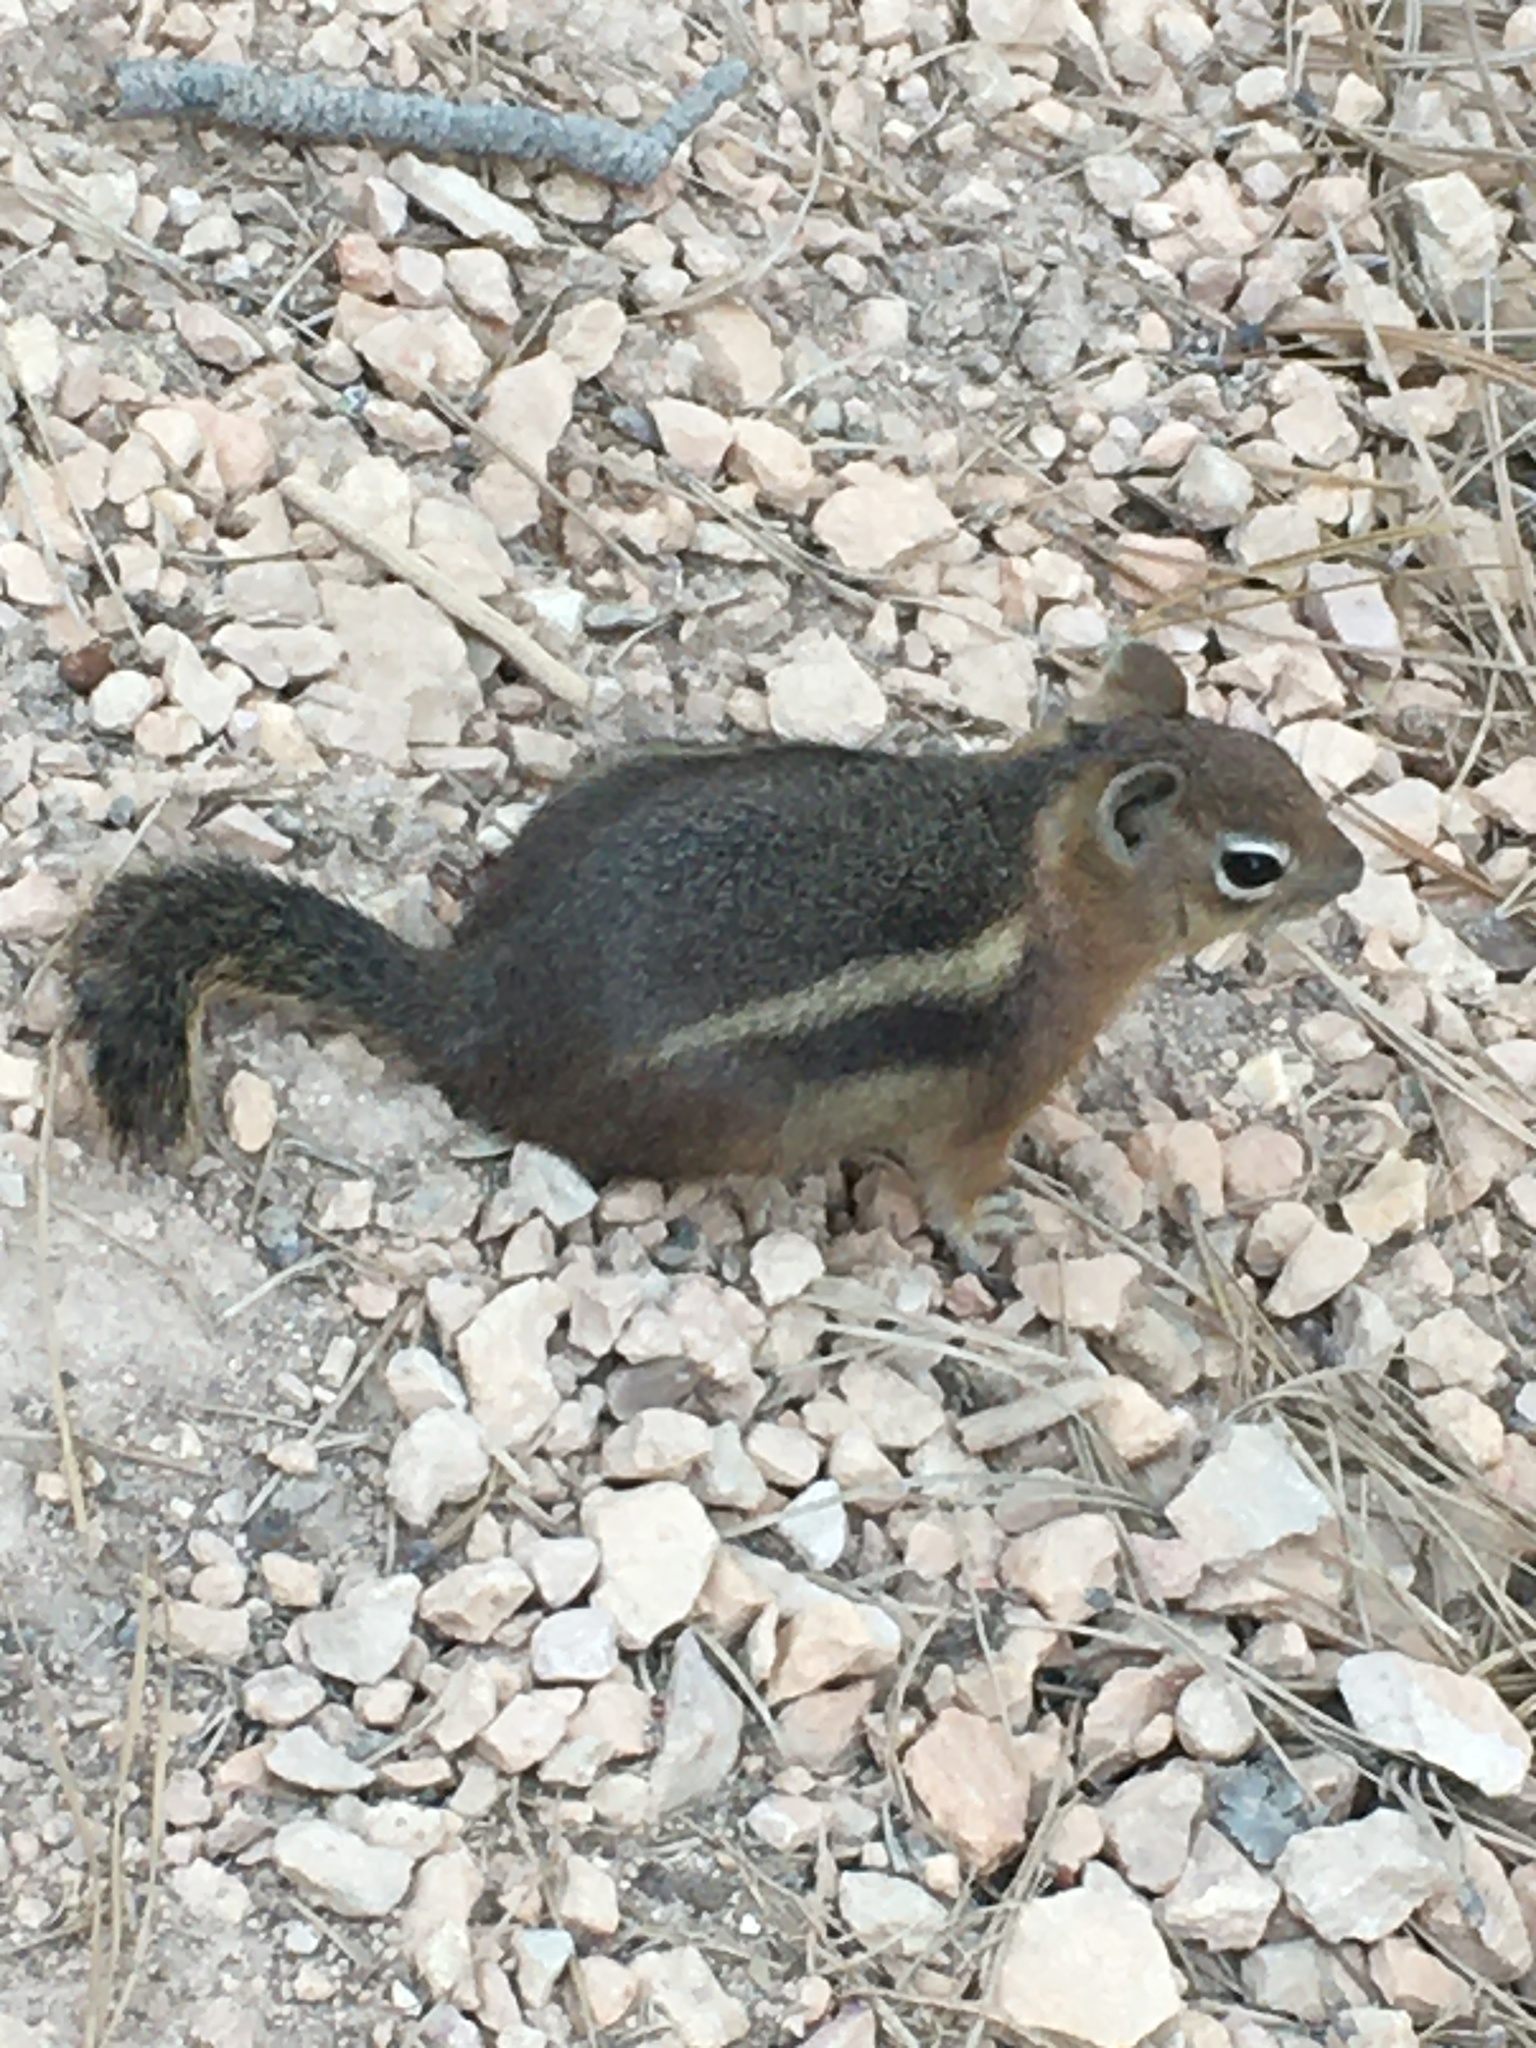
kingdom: Animalia
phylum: Chordata
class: Mammalia
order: Rodentia
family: Sciuridae
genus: Callospermophilus
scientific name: Callospermophilus lateralis
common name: Golden-mantled ground squirrel
